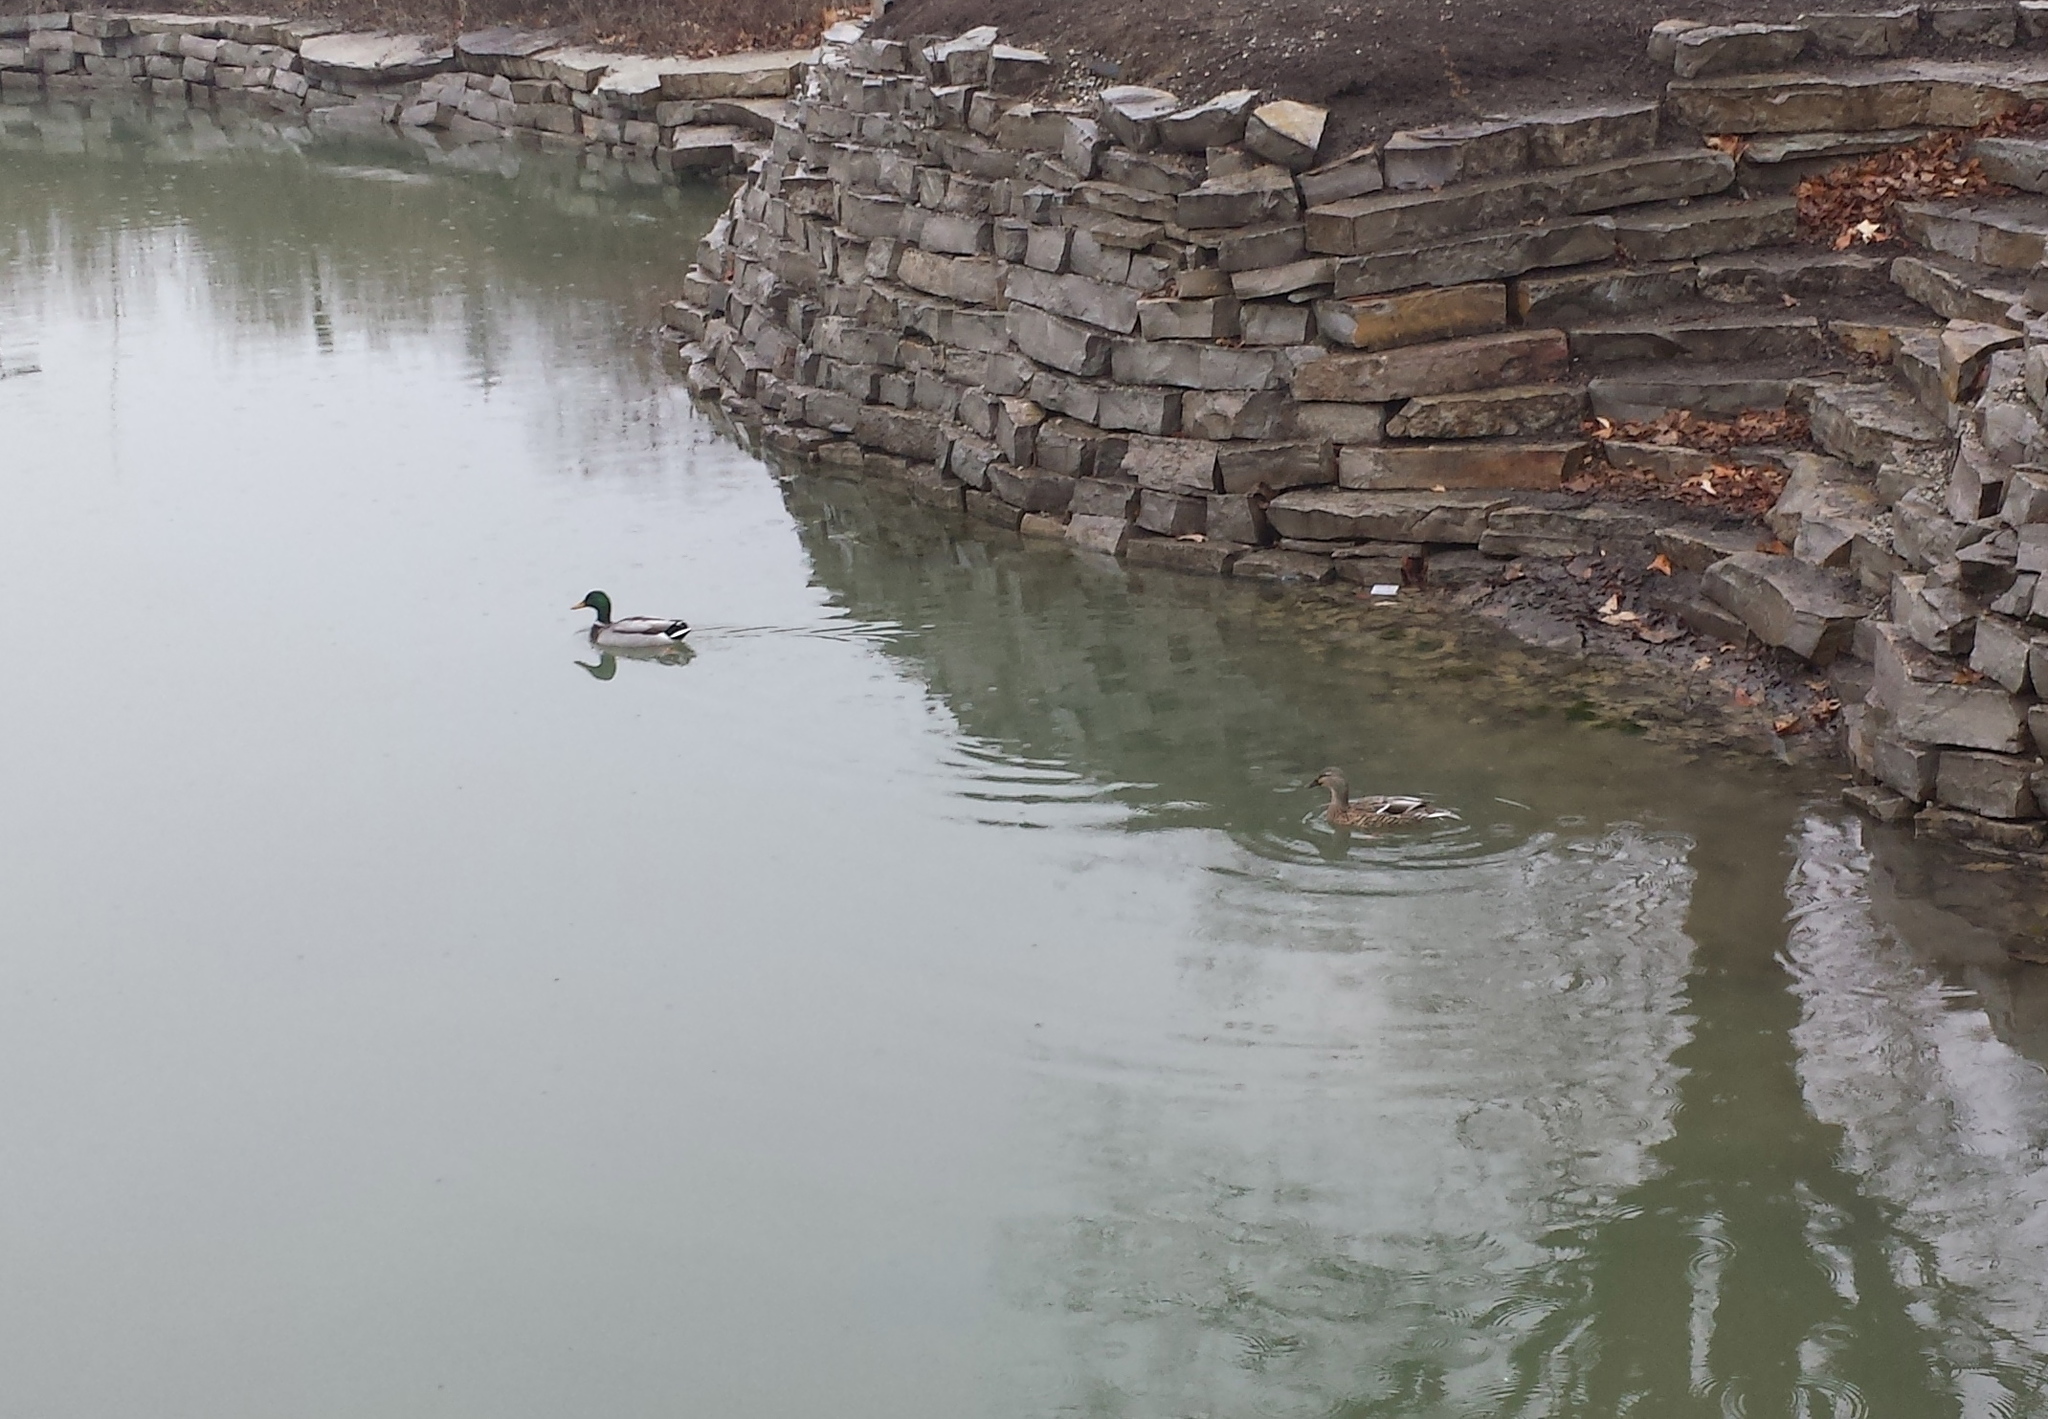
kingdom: Animalia
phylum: Chordata
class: Aves
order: Anseriformes
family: Anatidae
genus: Anas
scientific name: Anas platyrhynchos
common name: Mallard
